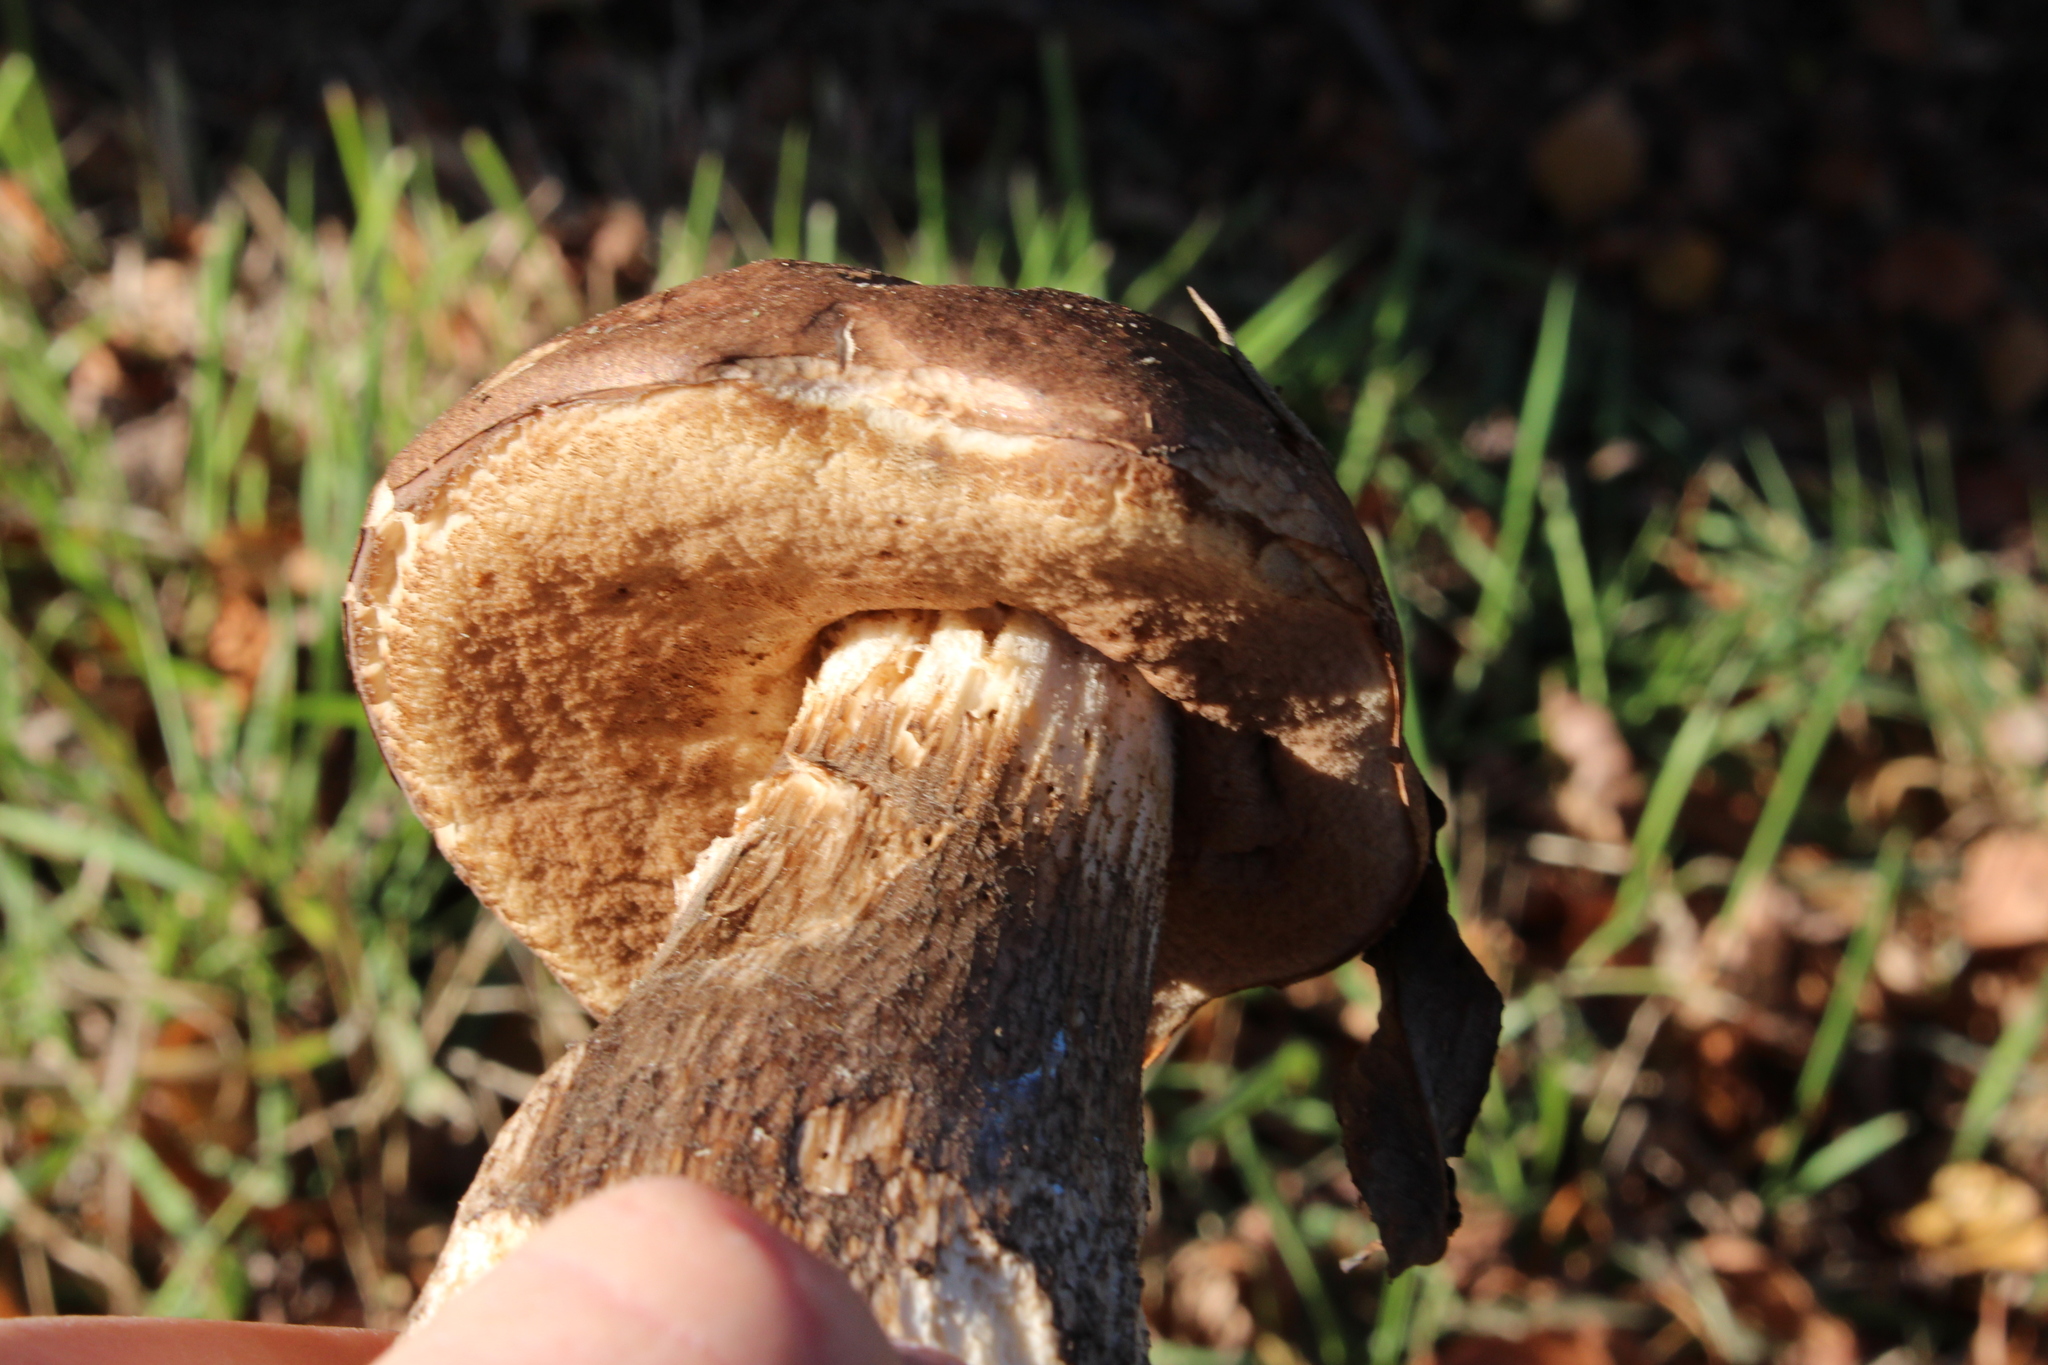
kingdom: Fungi
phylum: Basidiomycota
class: Agaricomycetes
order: Boletales
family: Boletaceae
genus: Leccinum
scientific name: Leccinum scabrum
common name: Blushing bolete
